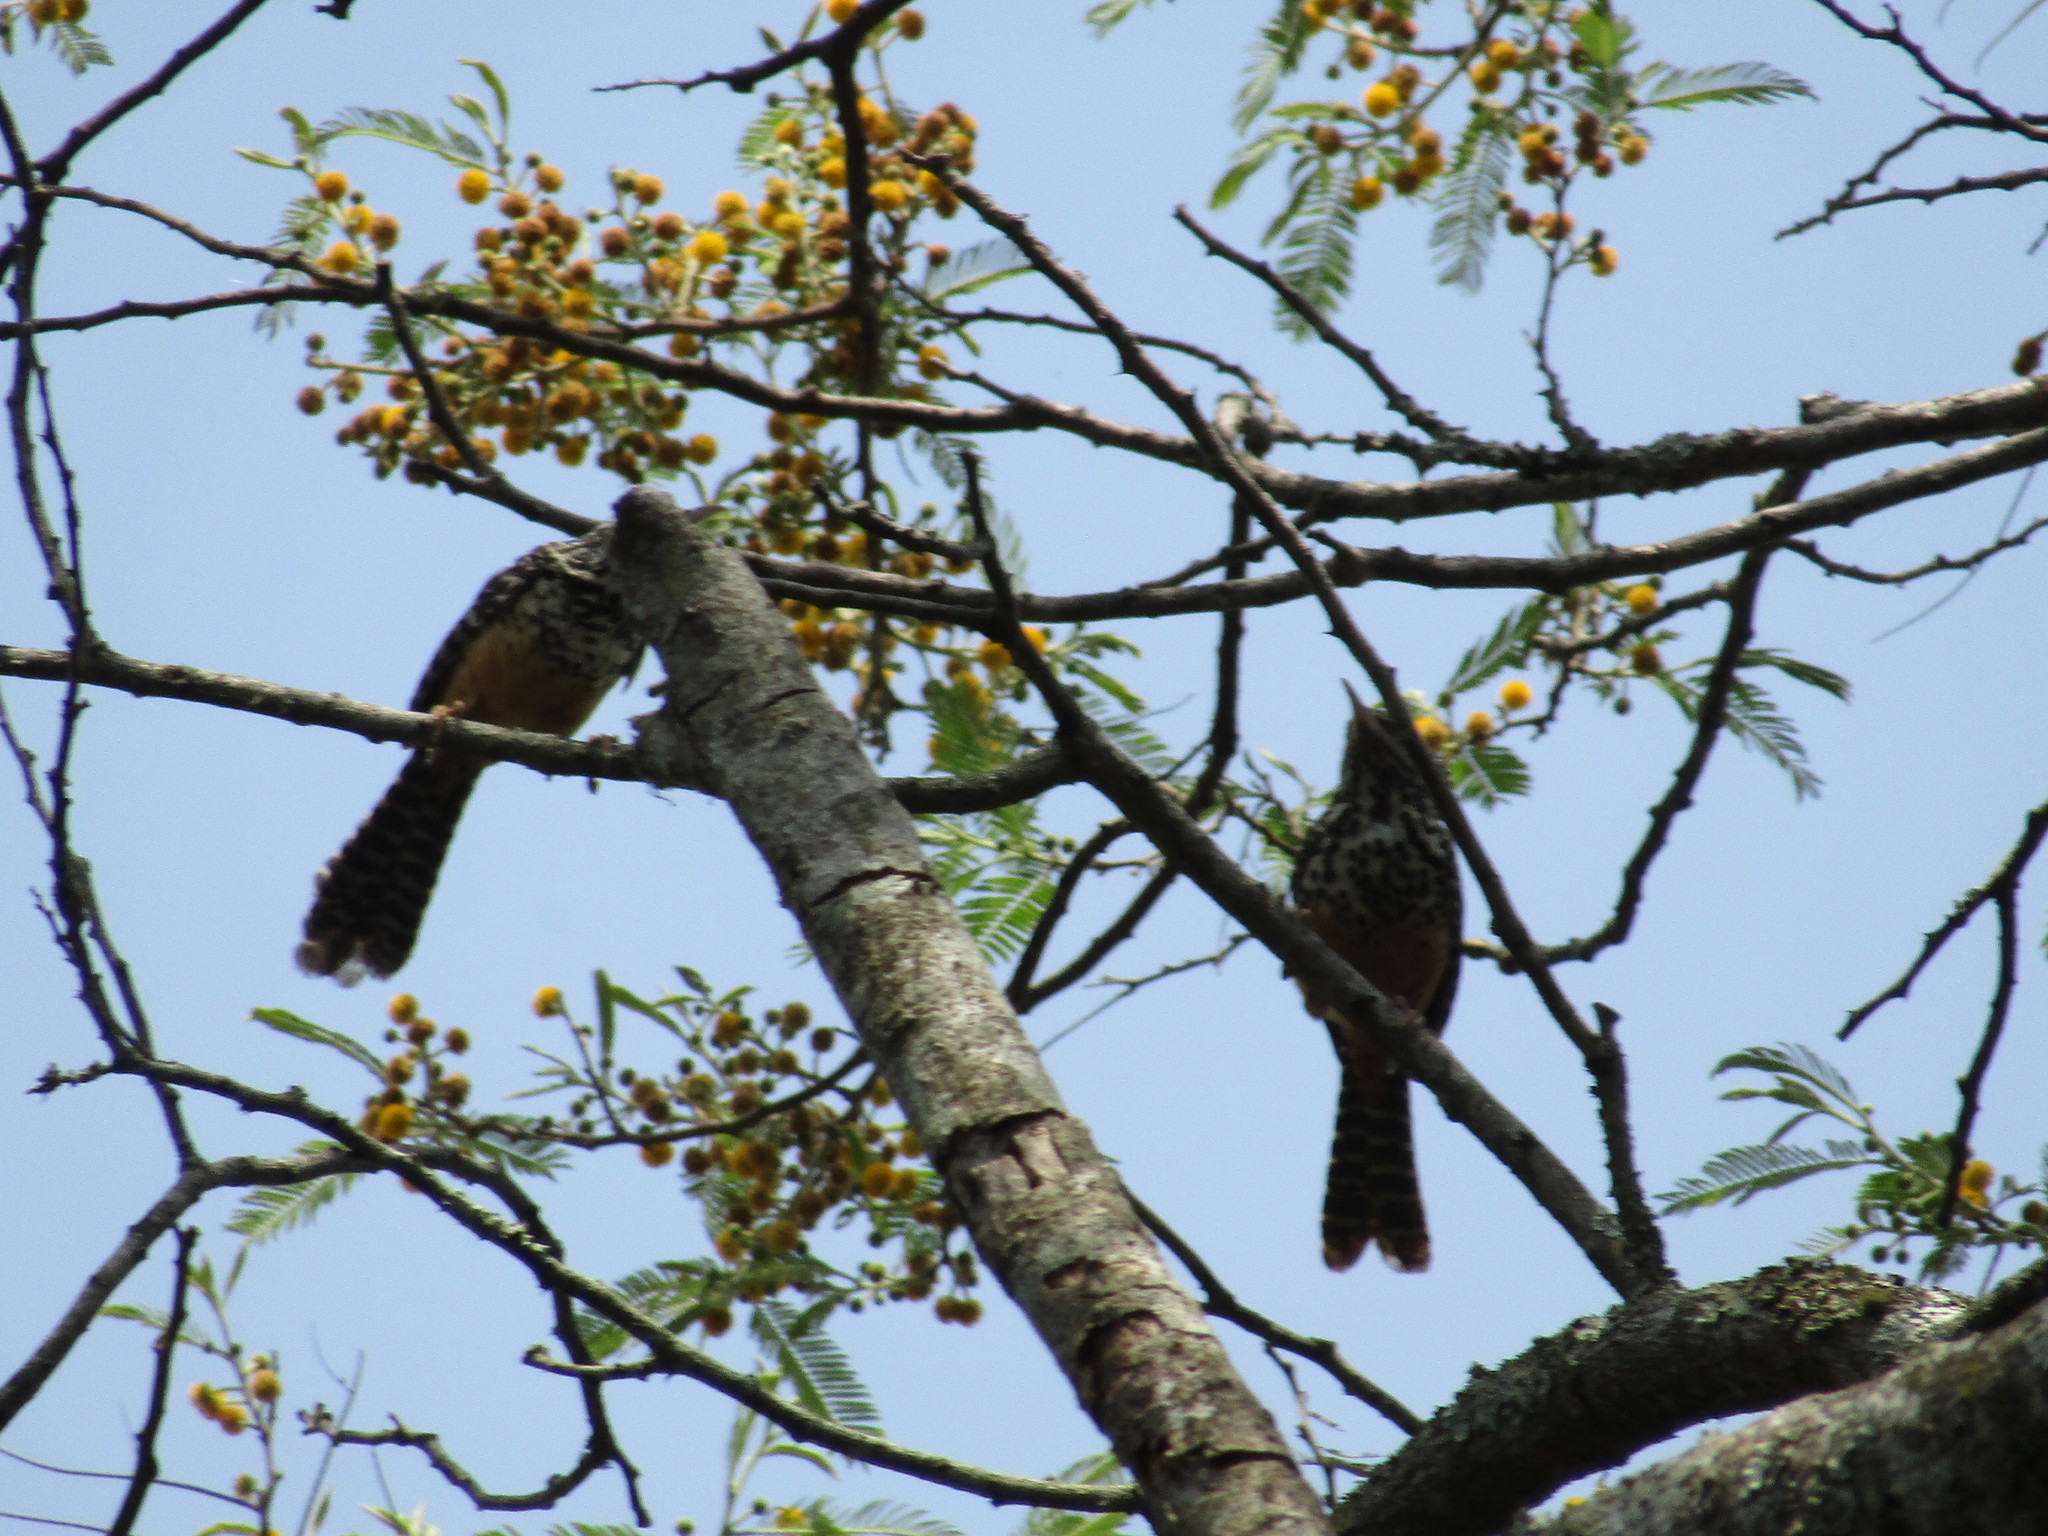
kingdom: Animalia
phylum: Chordata
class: Aves
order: Passeriformes
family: Troglodytidae
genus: Campylorhynchus
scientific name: Campylorhynchus zonatus
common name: Band-backed wren
